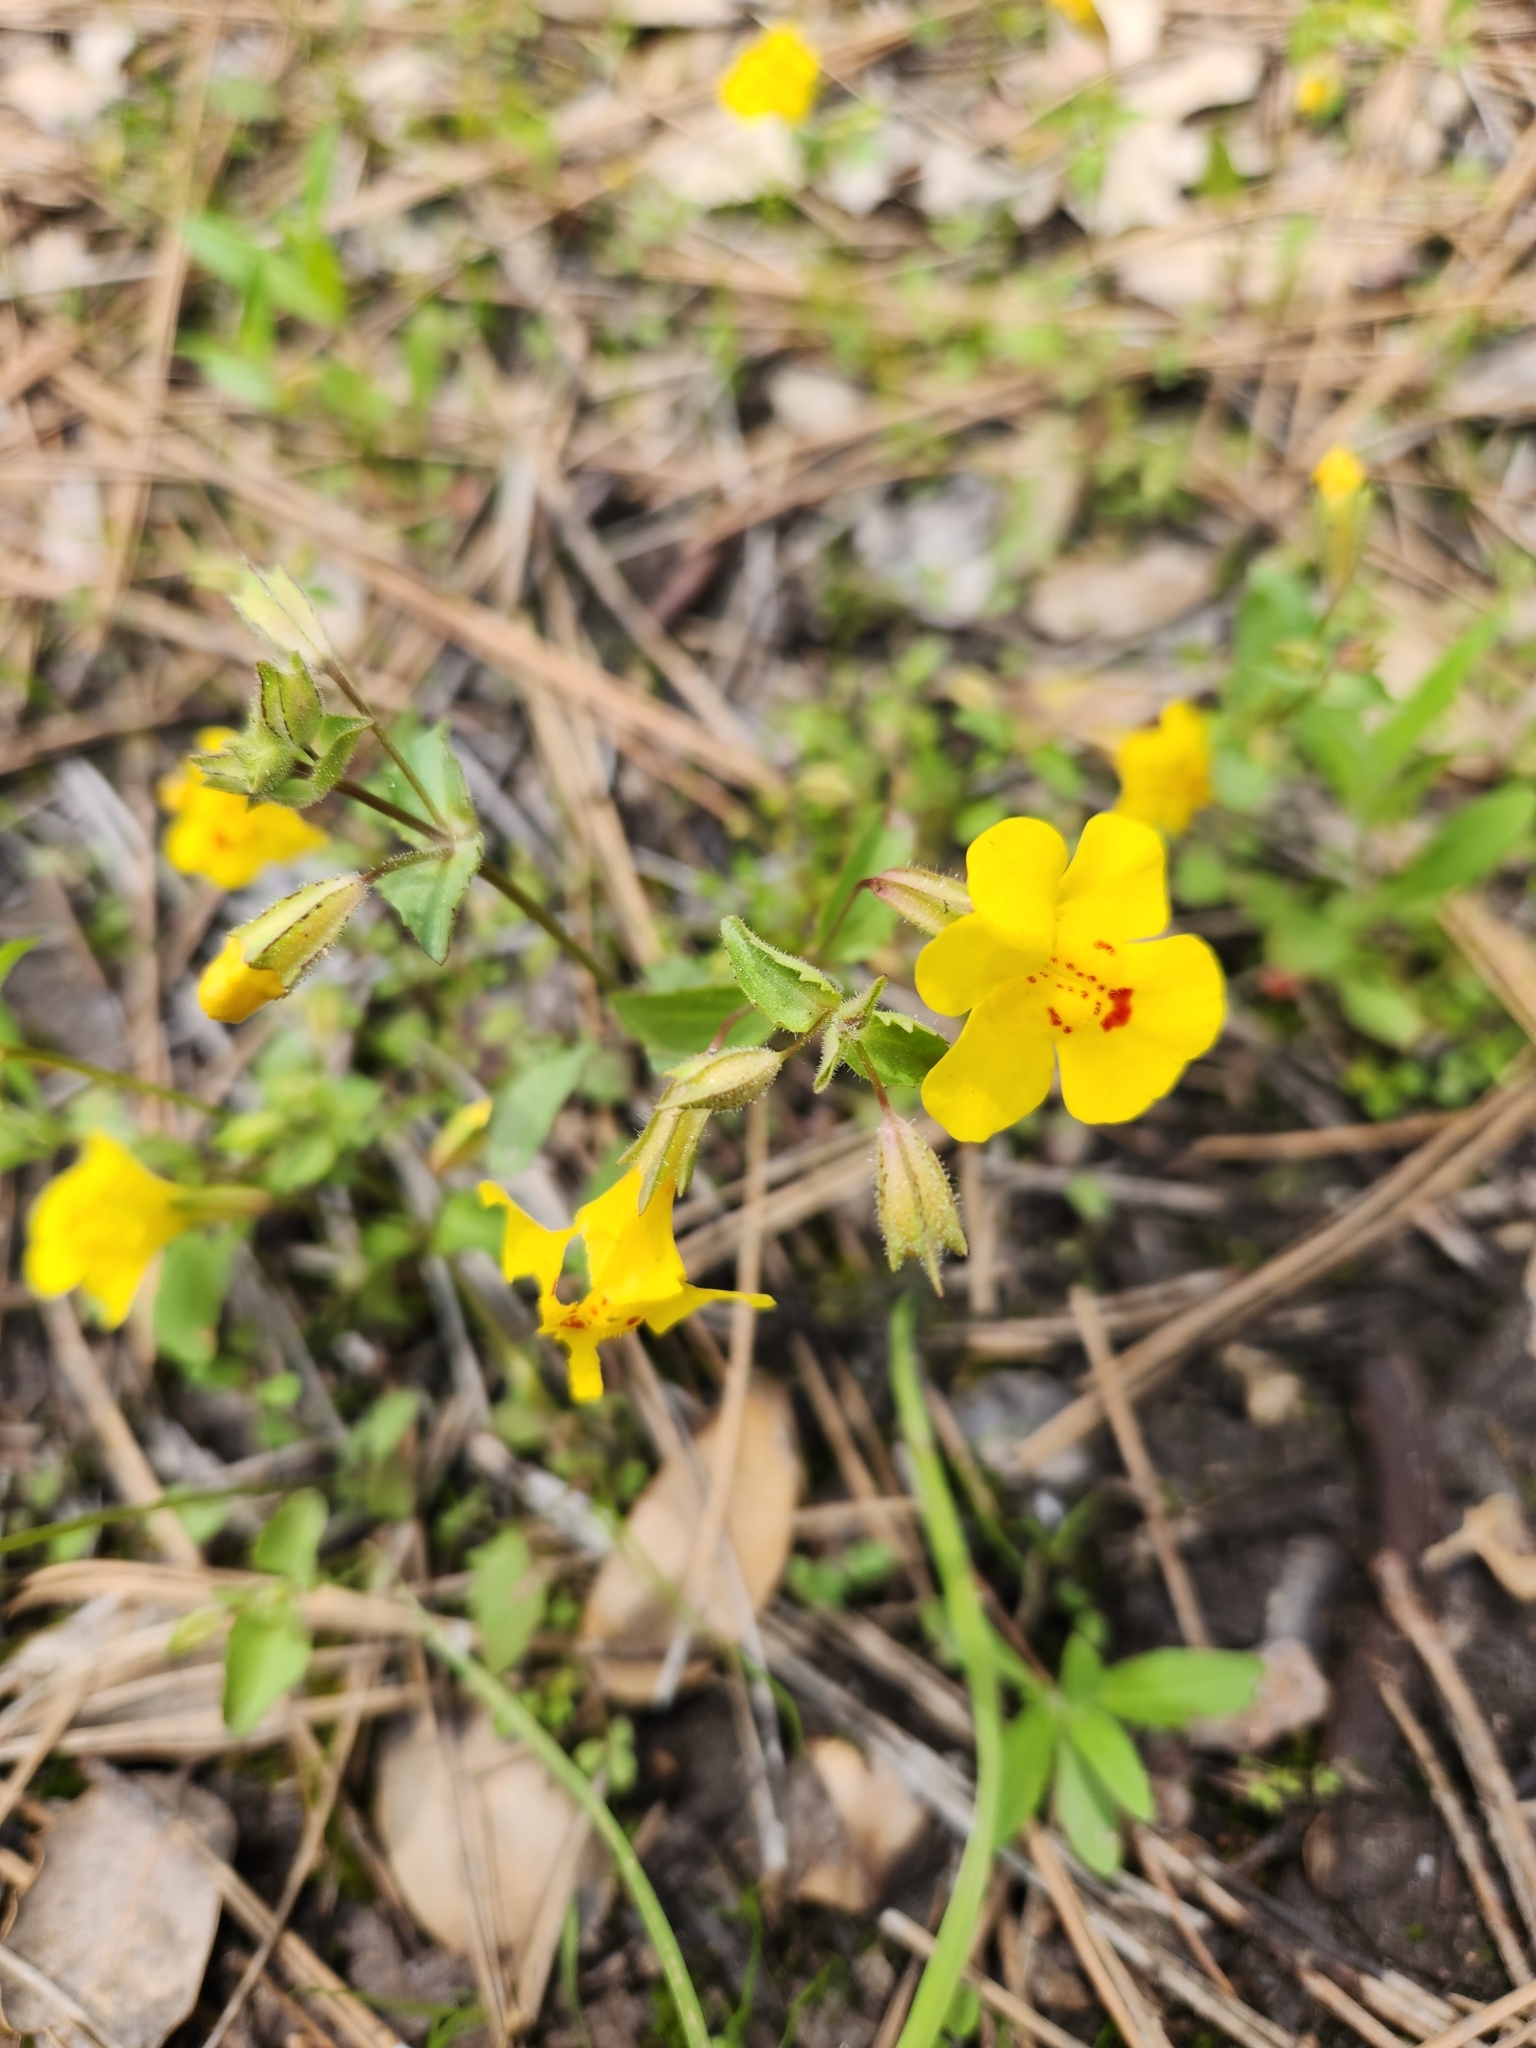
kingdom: Plantae
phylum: Tracheophyta
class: Magnoliopsida
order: Lamiales
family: Phrymaceae
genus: Erythranthe
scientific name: Erythranthe guttata
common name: Monkeyflower
